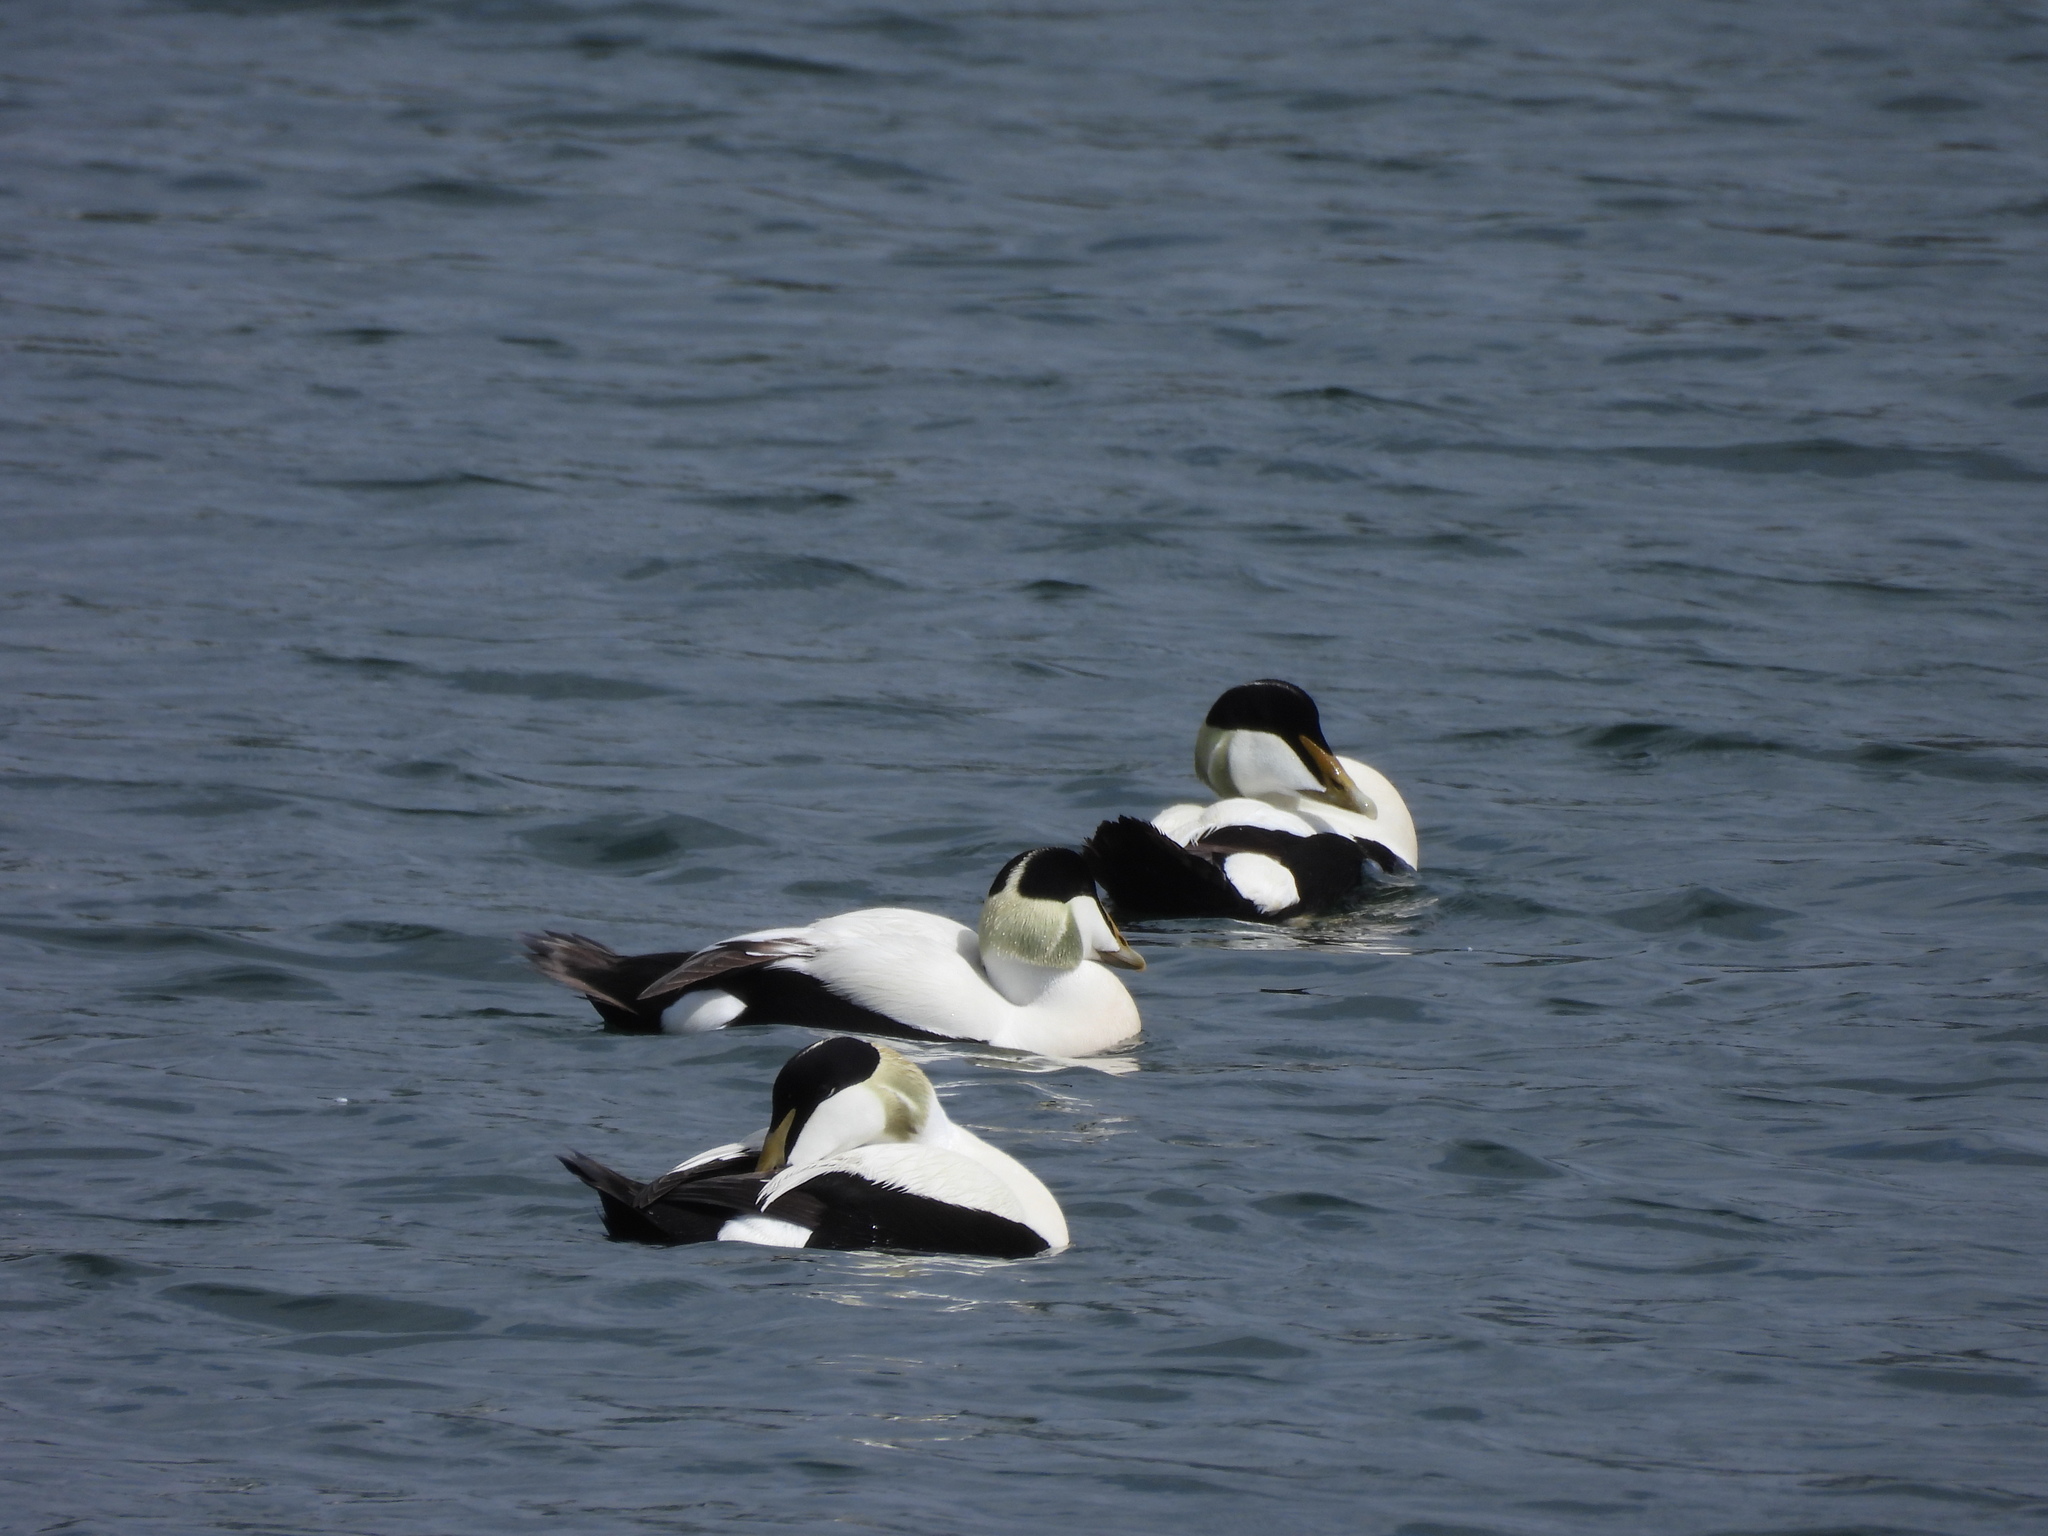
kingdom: Animalia
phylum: Chordata
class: Aves
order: Anseriformes
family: Anatidae
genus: Somateria
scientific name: Somateria mollissima
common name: Common eider
